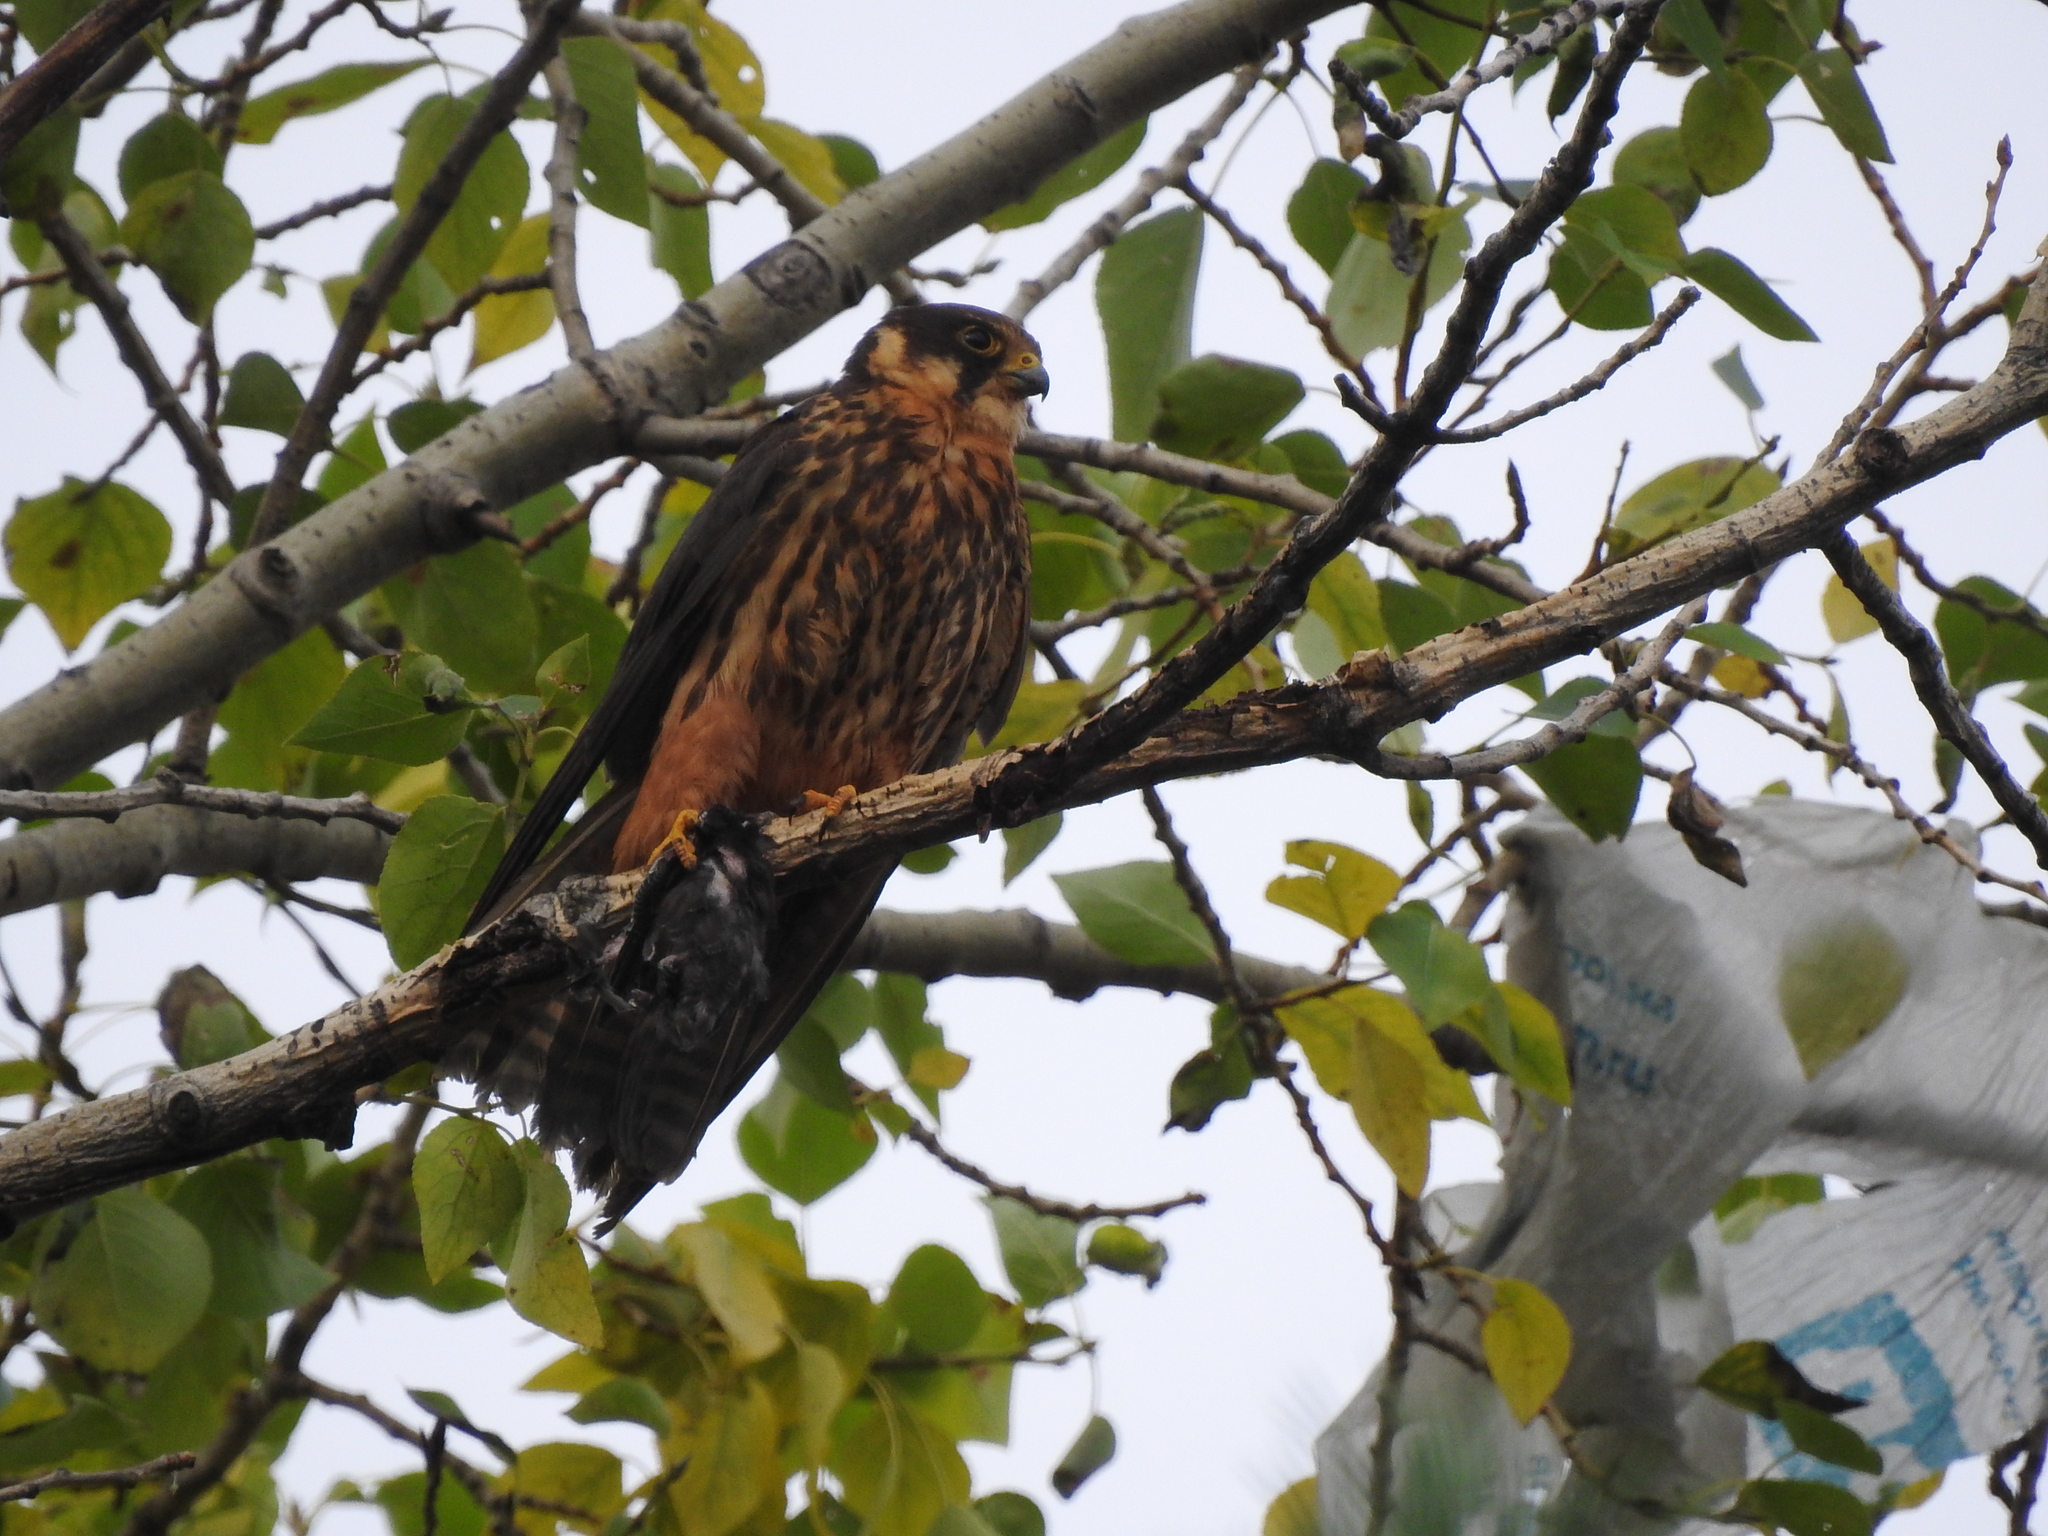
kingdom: Animalia
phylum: Chordata
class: Aves
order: Falconiformes
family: Falconidae
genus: Falco
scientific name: Falco subbuteo
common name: Eurasian hobby
